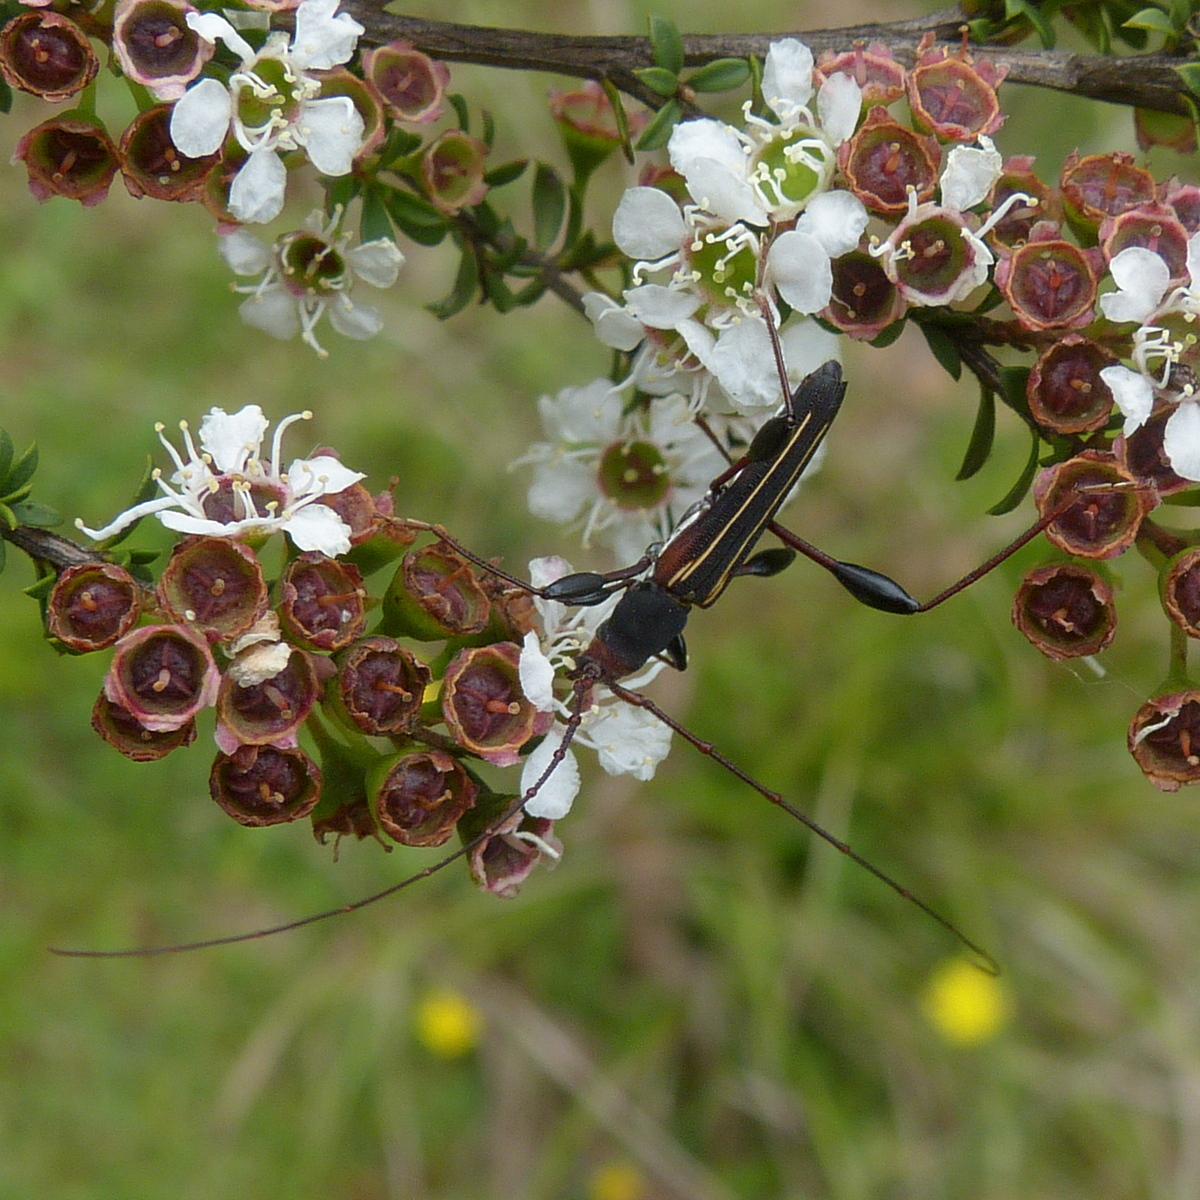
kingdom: Animalia
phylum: Arthropoda
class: Insecta
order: Coleoptera
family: Cerambycidae
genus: Amphirhoe
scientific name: Amphirhoe sloanei
